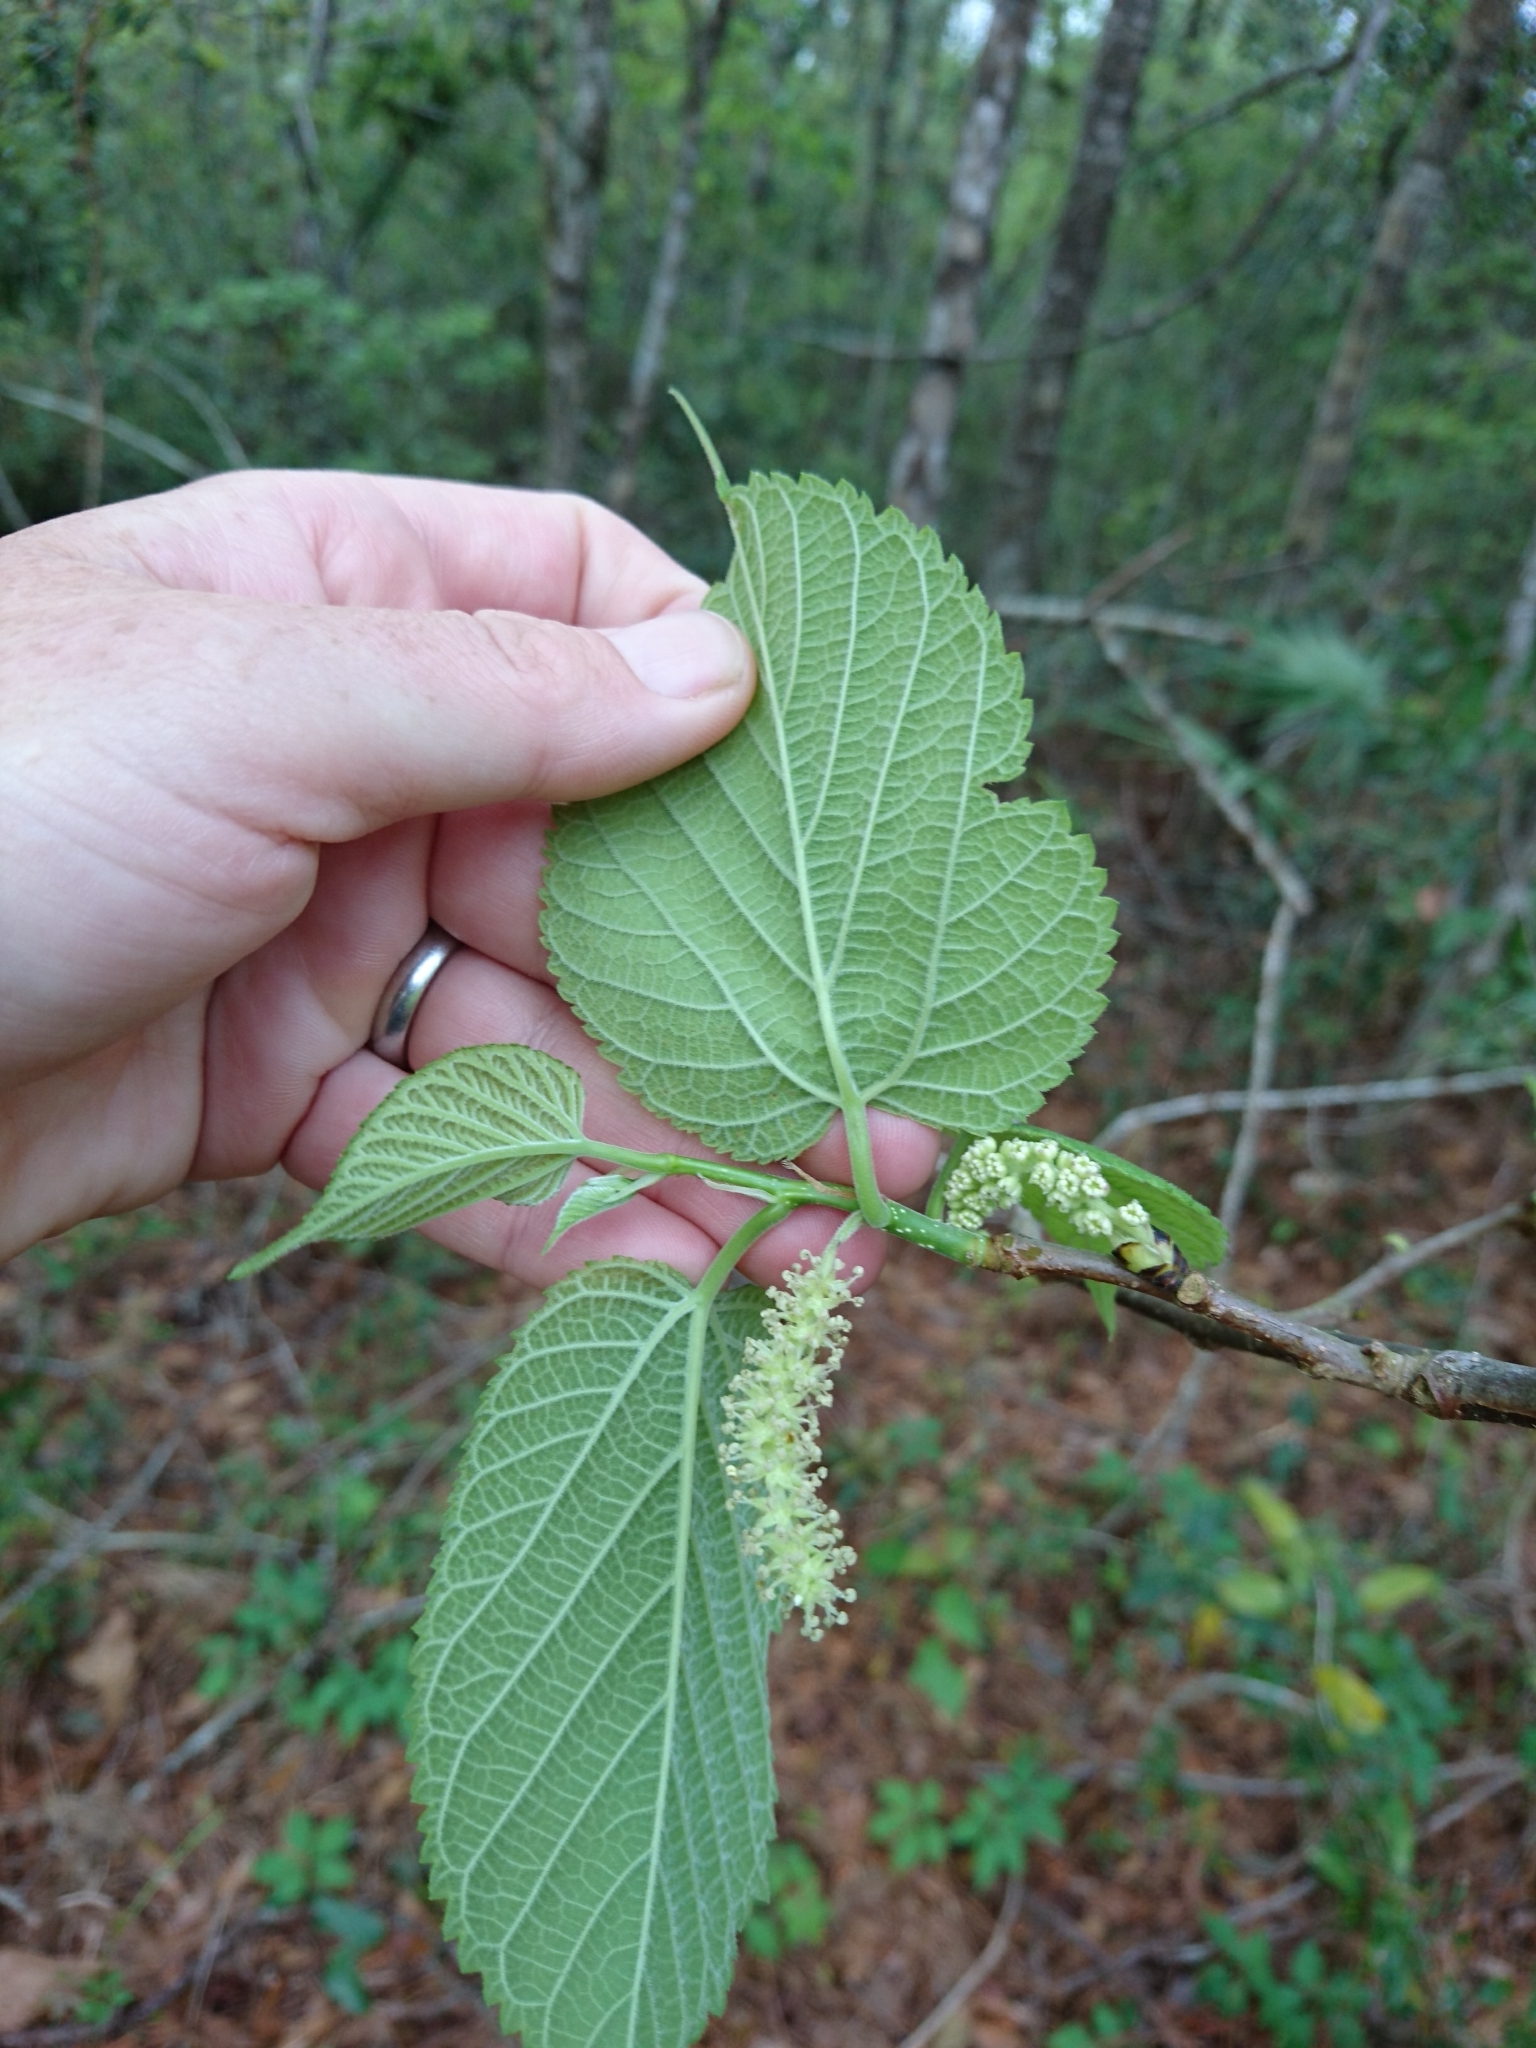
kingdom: Plantae
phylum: Tracheophyta
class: Magnoliopsida
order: Rosales
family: Moraceae
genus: Morus
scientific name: Morus rubra
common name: Red mulberry
